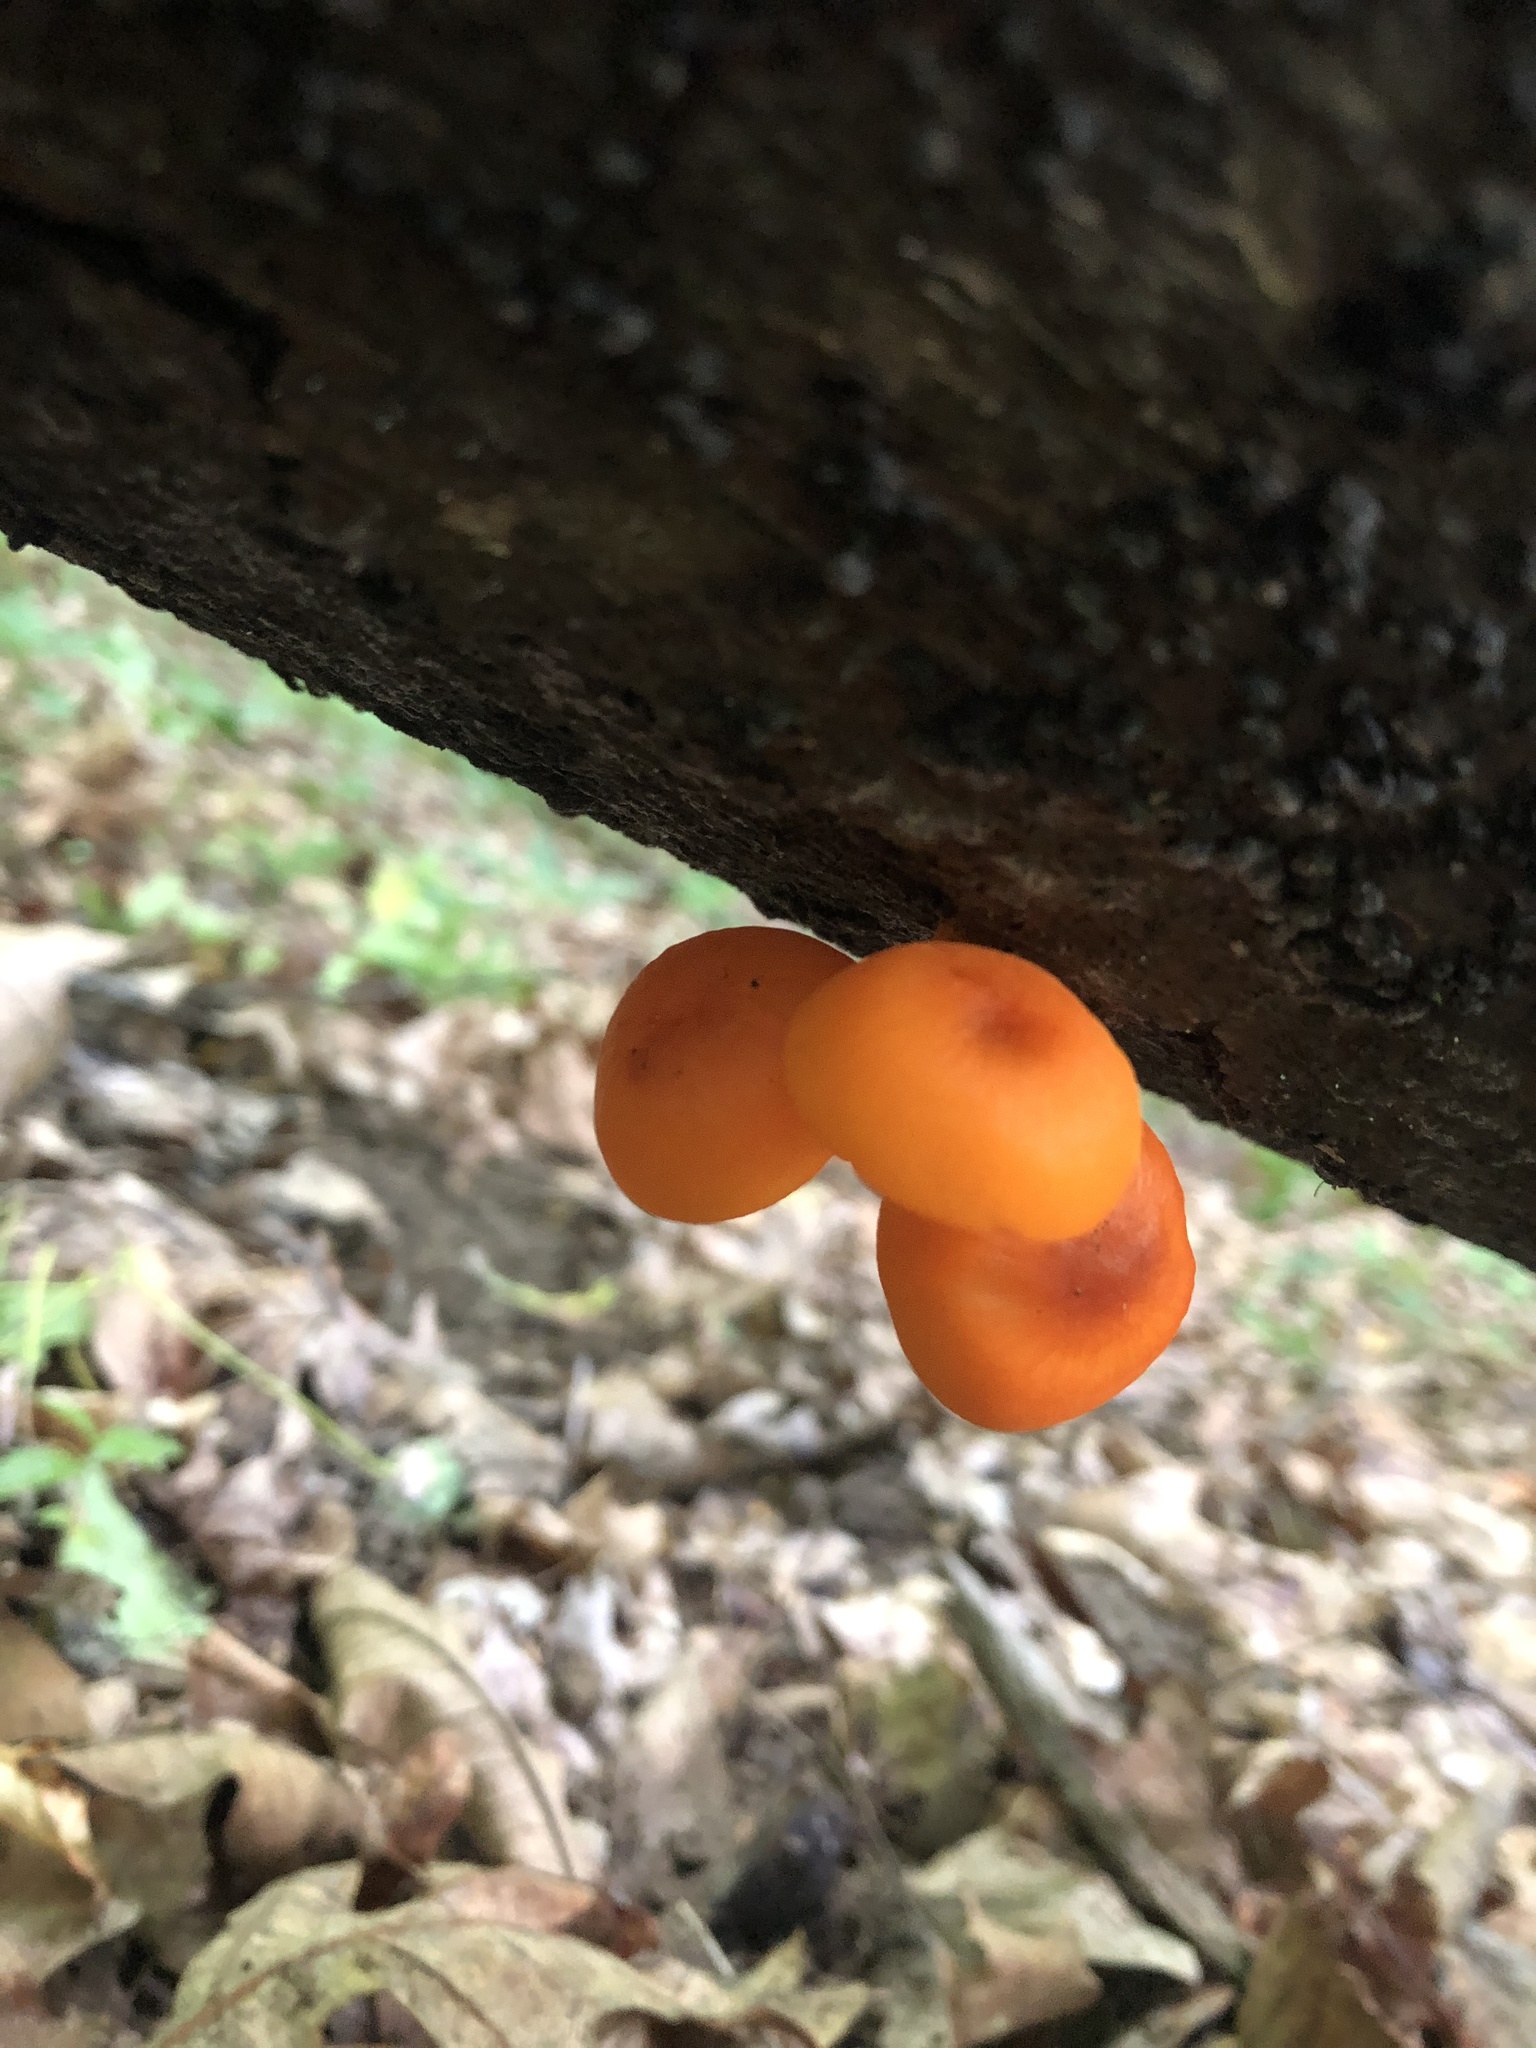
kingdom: Fungi
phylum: Basidiomycota
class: Agaricomycetes
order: Agaricales
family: Mycenaceae
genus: Mycena
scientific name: Mycena leaiana
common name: Orange mycena
